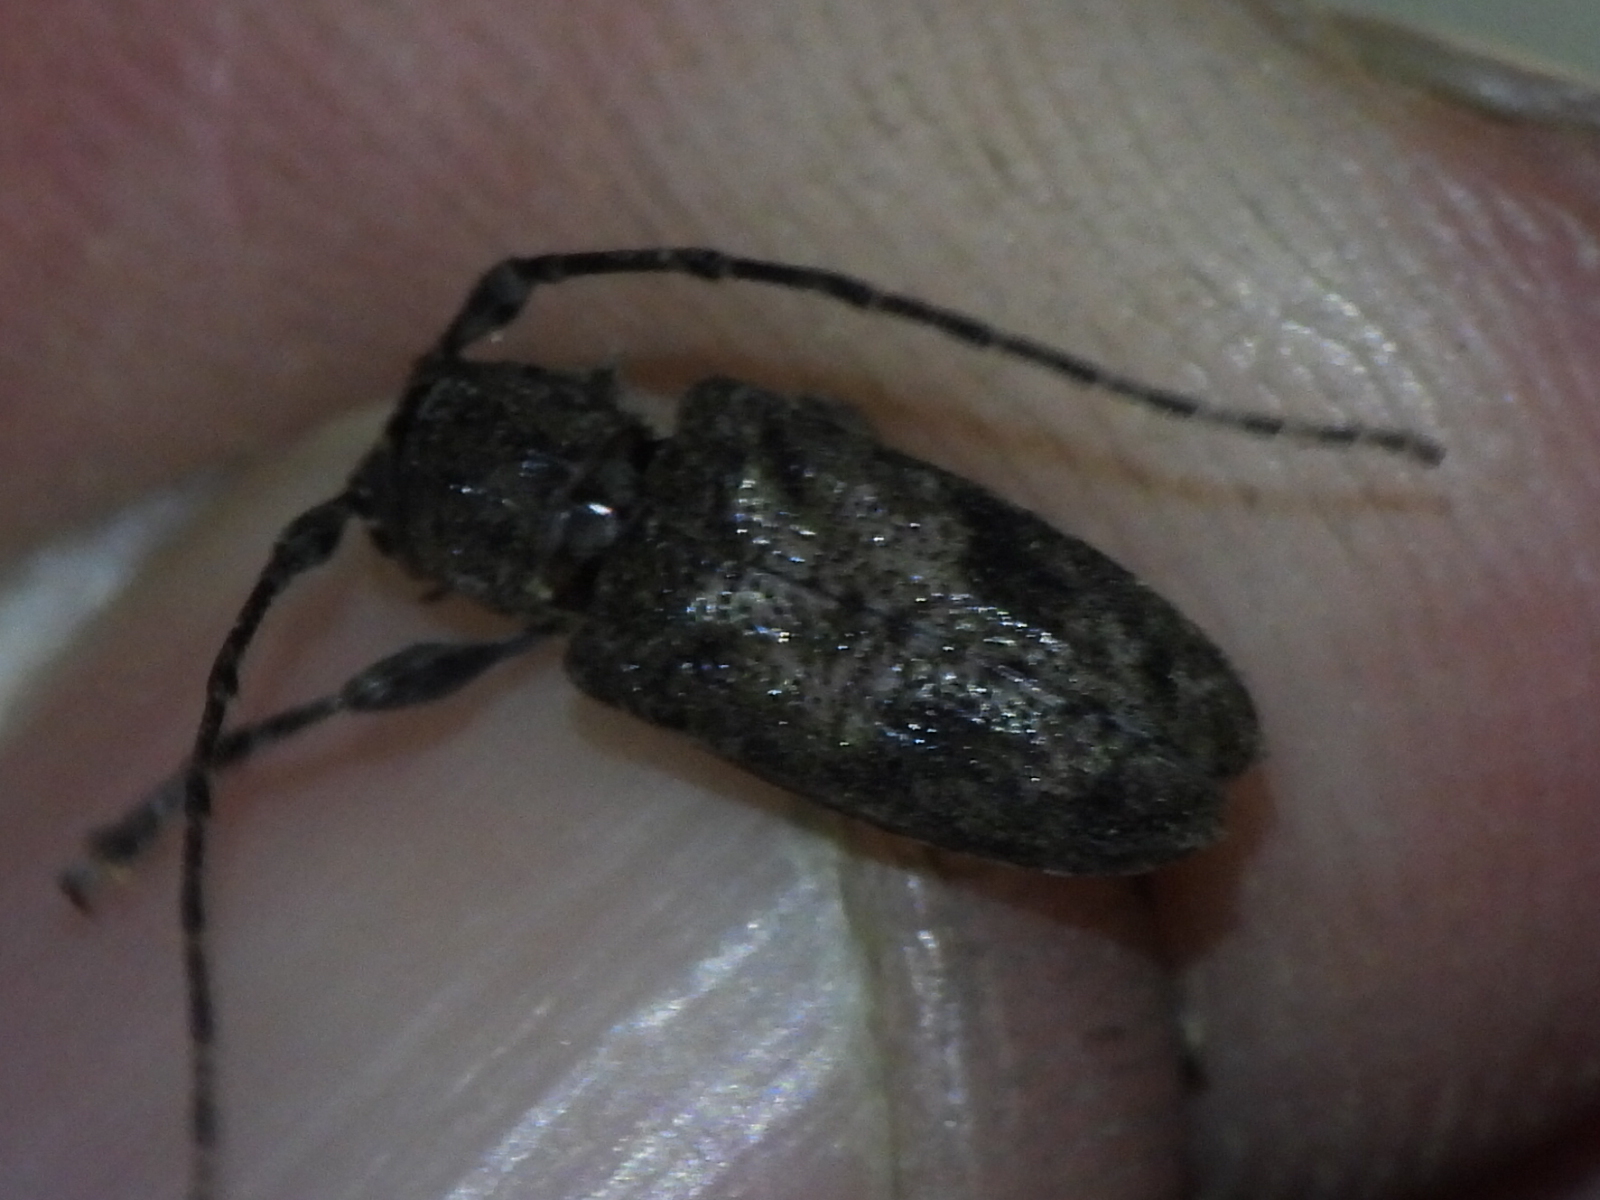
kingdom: Animalia
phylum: Arthropoda
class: Insecta
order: Coleoptera
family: Cerambycidae
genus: Aegomorphus
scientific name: Aegomorphus modestus
